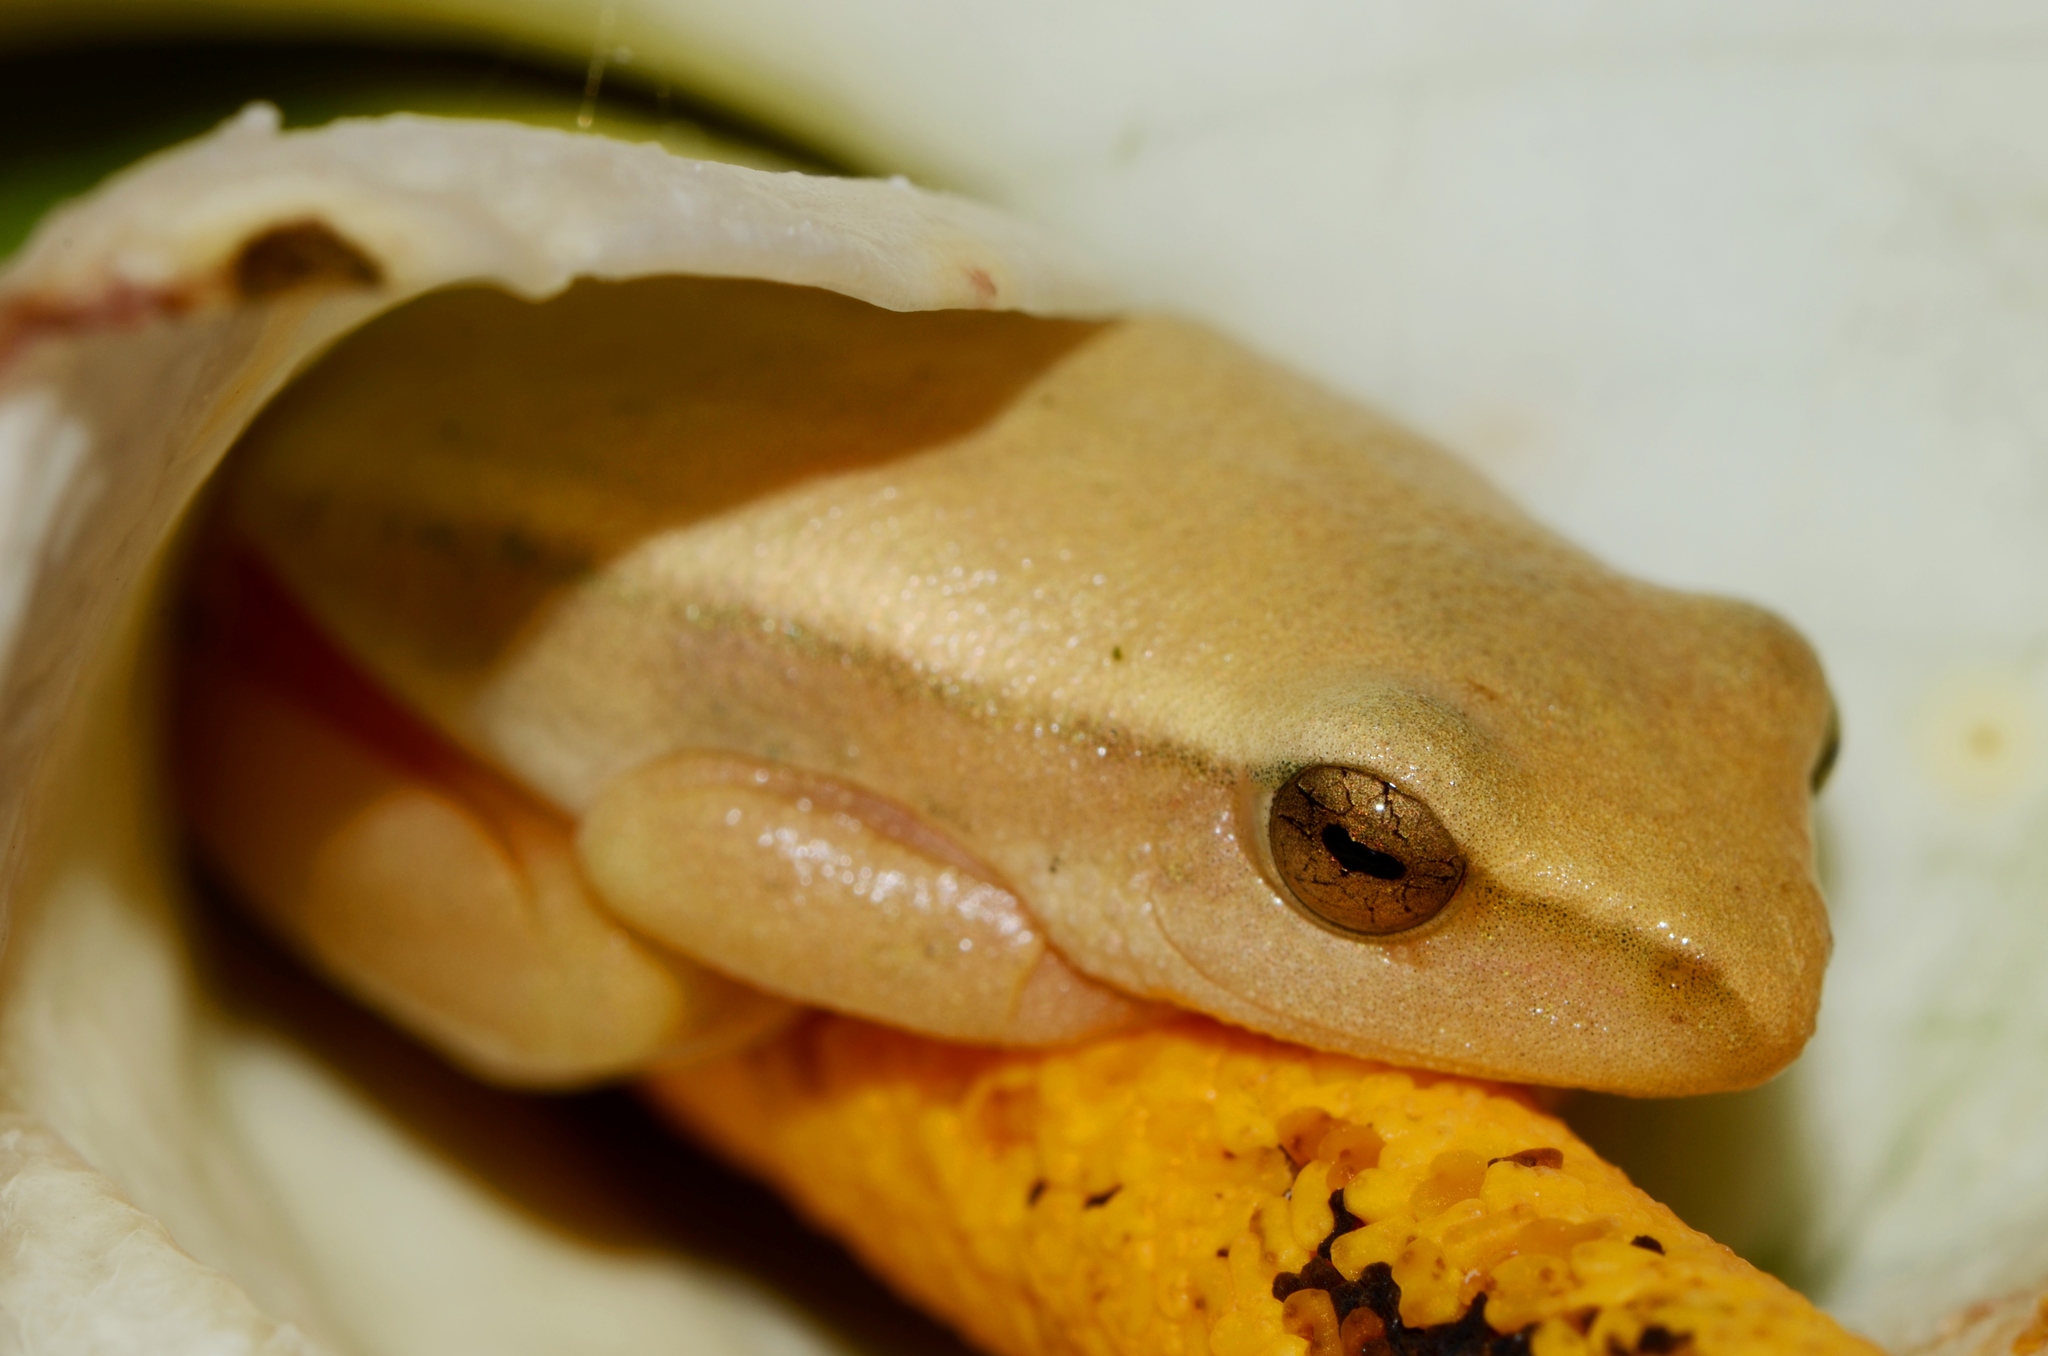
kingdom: Animalia
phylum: Chordata
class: Amphibia
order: Anura
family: Hyperoliidae
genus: Hyperolius
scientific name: Hyperolius horstockii
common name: Arum lily frog
